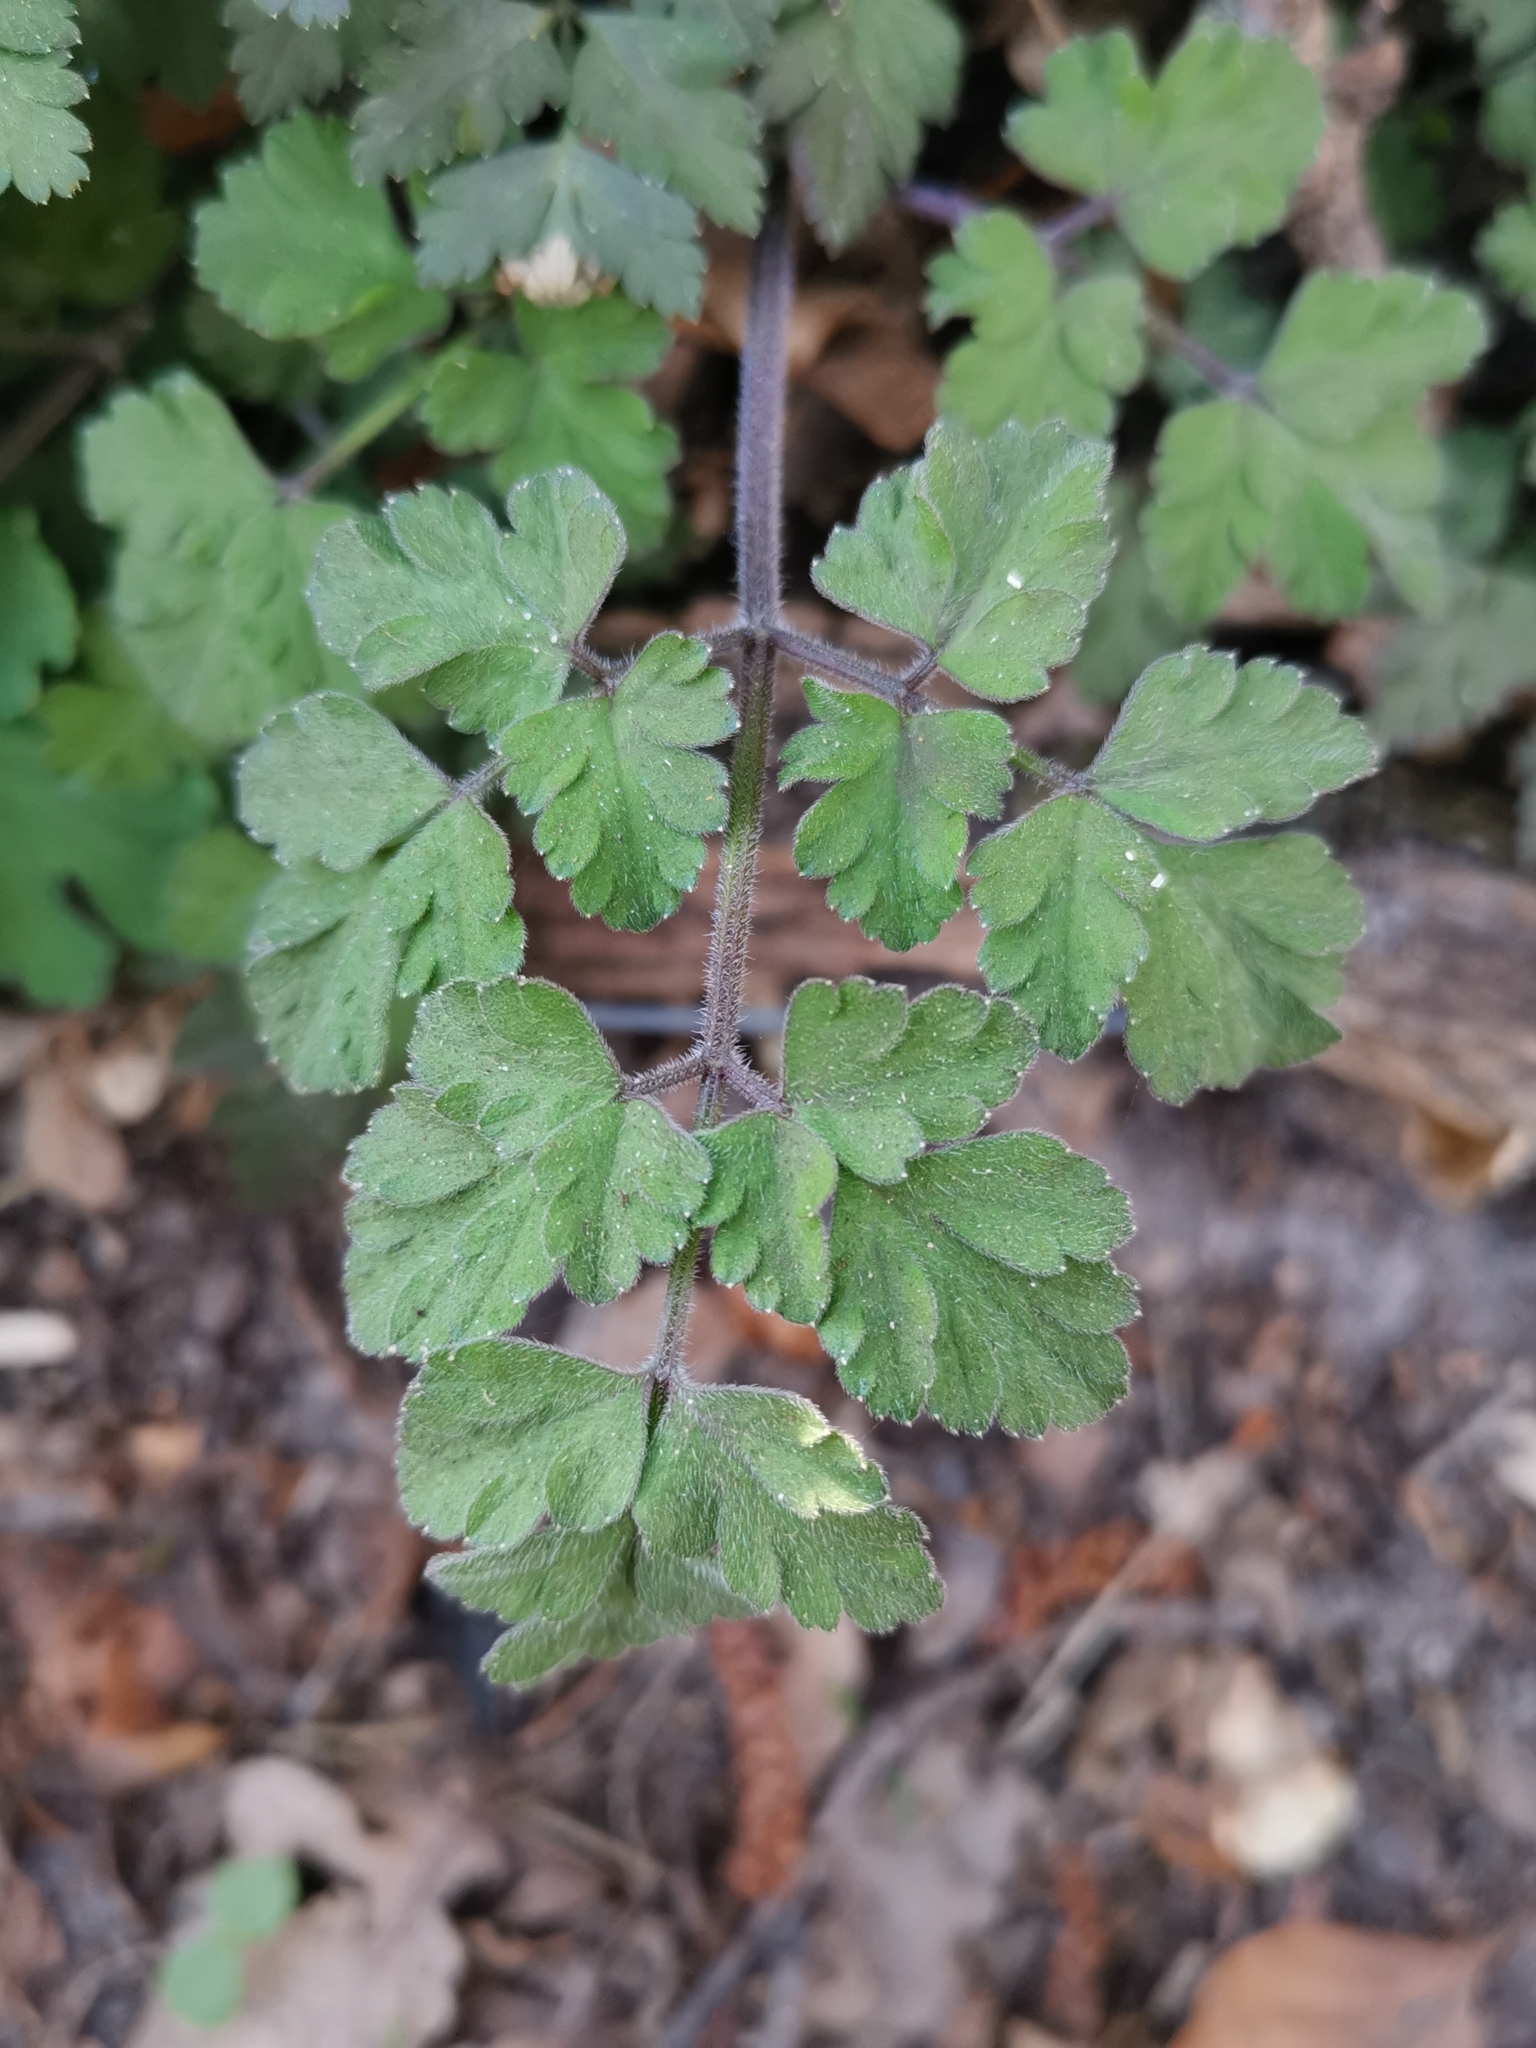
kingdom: Plantae
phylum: Tracheophyta
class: Magnoliopsida
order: Apiales
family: Apiaceae
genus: Chaerophyllum
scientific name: Chaerophyllum temulum
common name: Rough chervil
